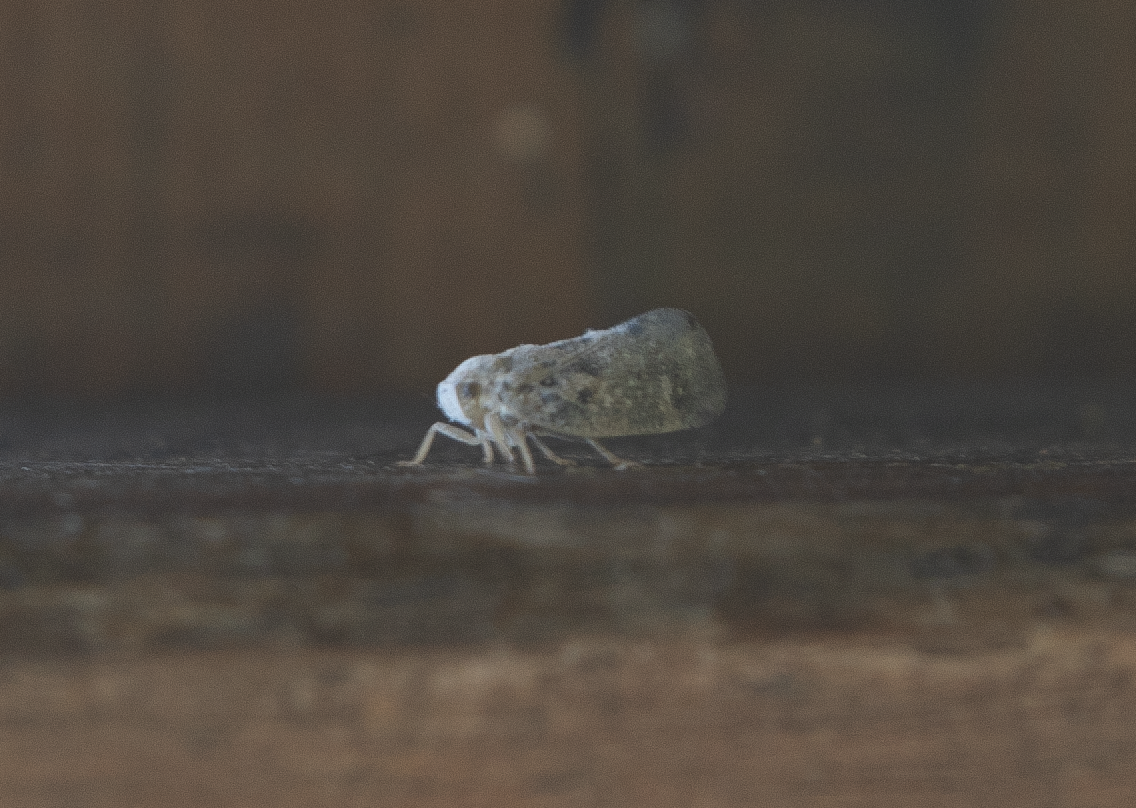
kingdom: Animalia
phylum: Arthropoda
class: Insecta
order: Hemiptera
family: Flatidae
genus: Metcalfa
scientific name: Metcalfa pruinosa
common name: Citrus flatid planthopper
